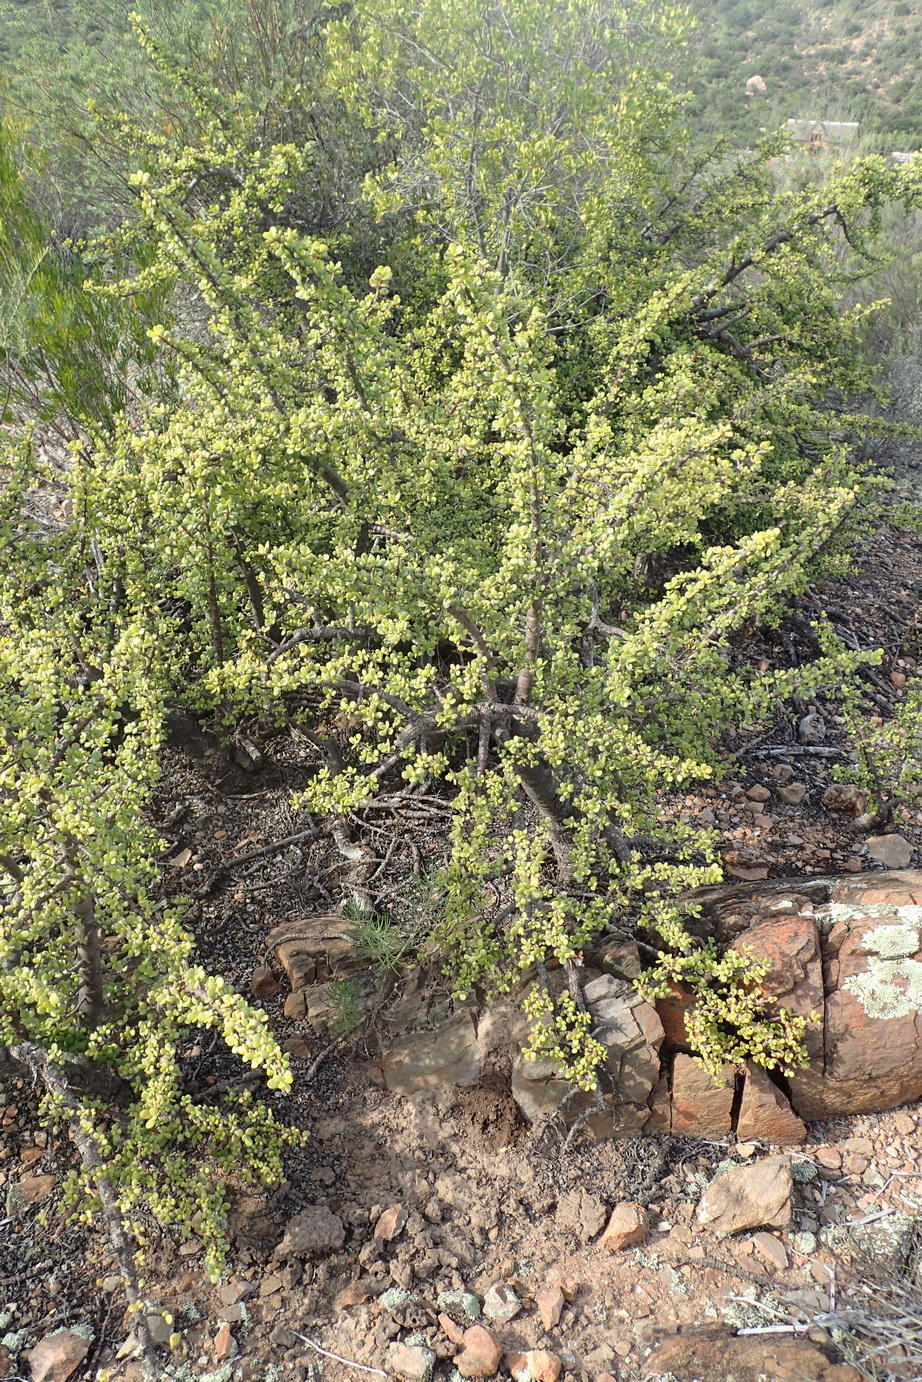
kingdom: Plantae
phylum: Tracheophyta
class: Magnoliopsida
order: Caryophyllales
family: Didiereaceae
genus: Portulacaria
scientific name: Portulacaria afra
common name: Elephant-bush
